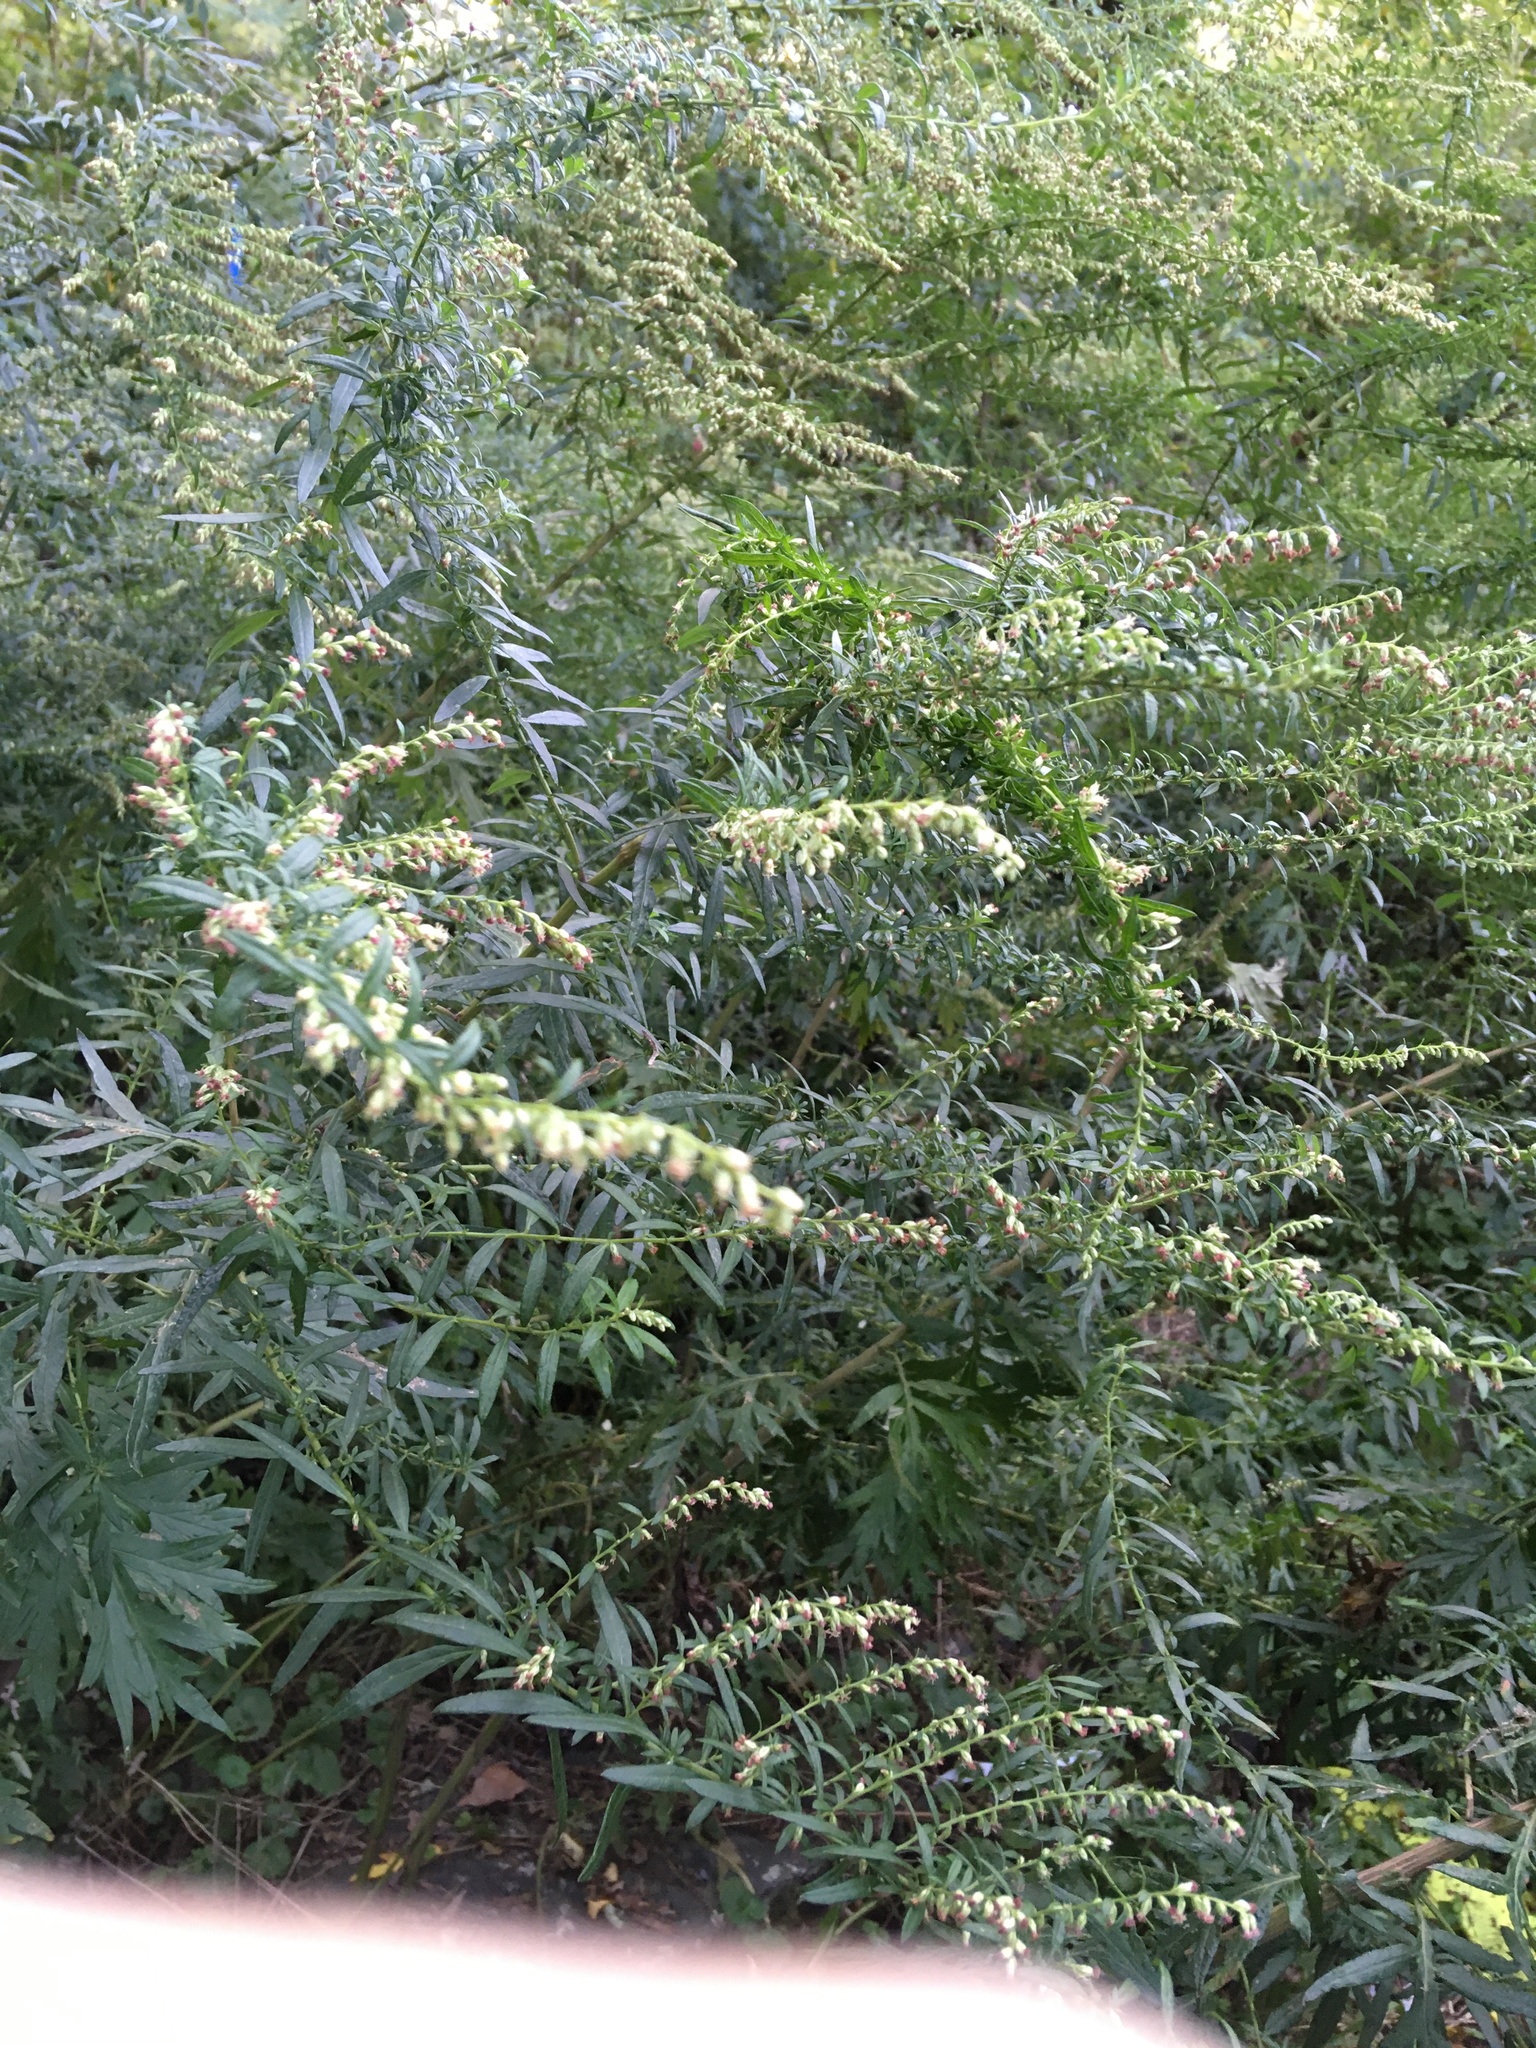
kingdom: Plantae
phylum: Tracheophyta
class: Magnoliopsida
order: Asterales
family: Asteraceae
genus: Artemisia
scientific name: Artemisia vulgaris
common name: Mugwort
